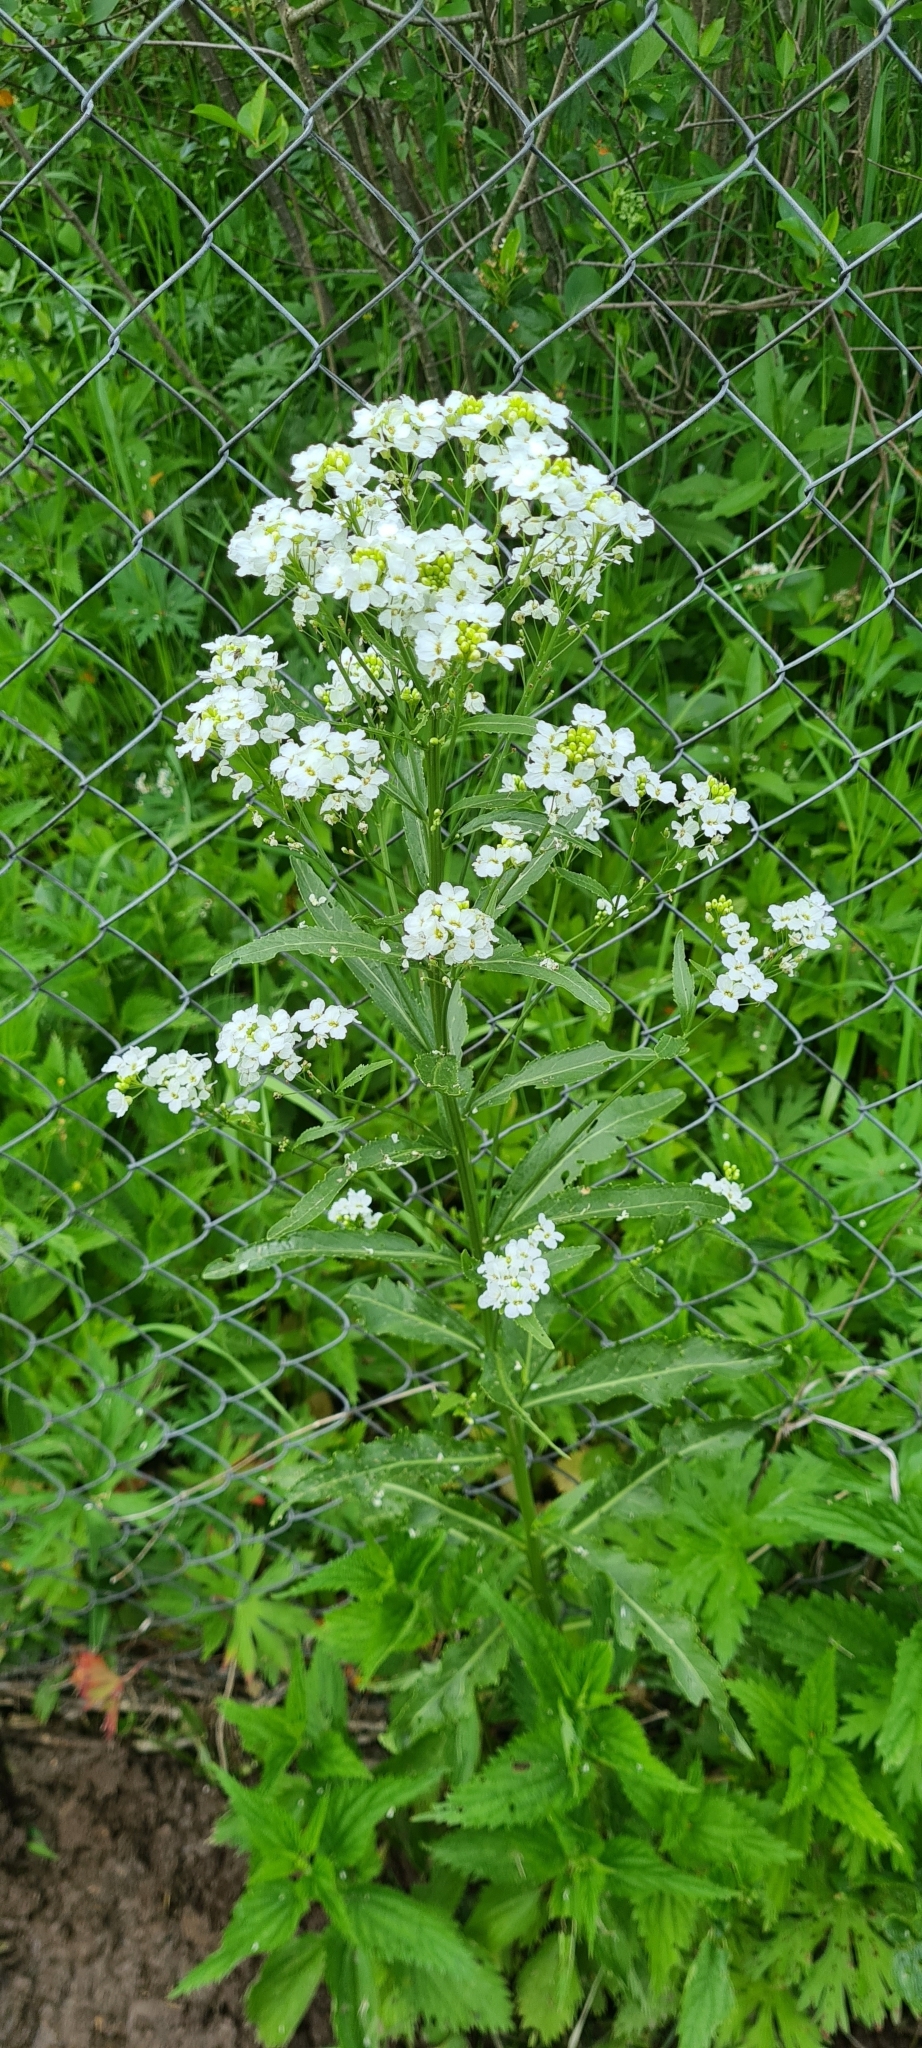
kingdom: Plantae
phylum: Tracheophyta
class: Magnoliopsida
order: Brassicales
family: Brassicaceae
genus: Armoracia
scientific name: Armoracia rusticana
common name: Horseradish
